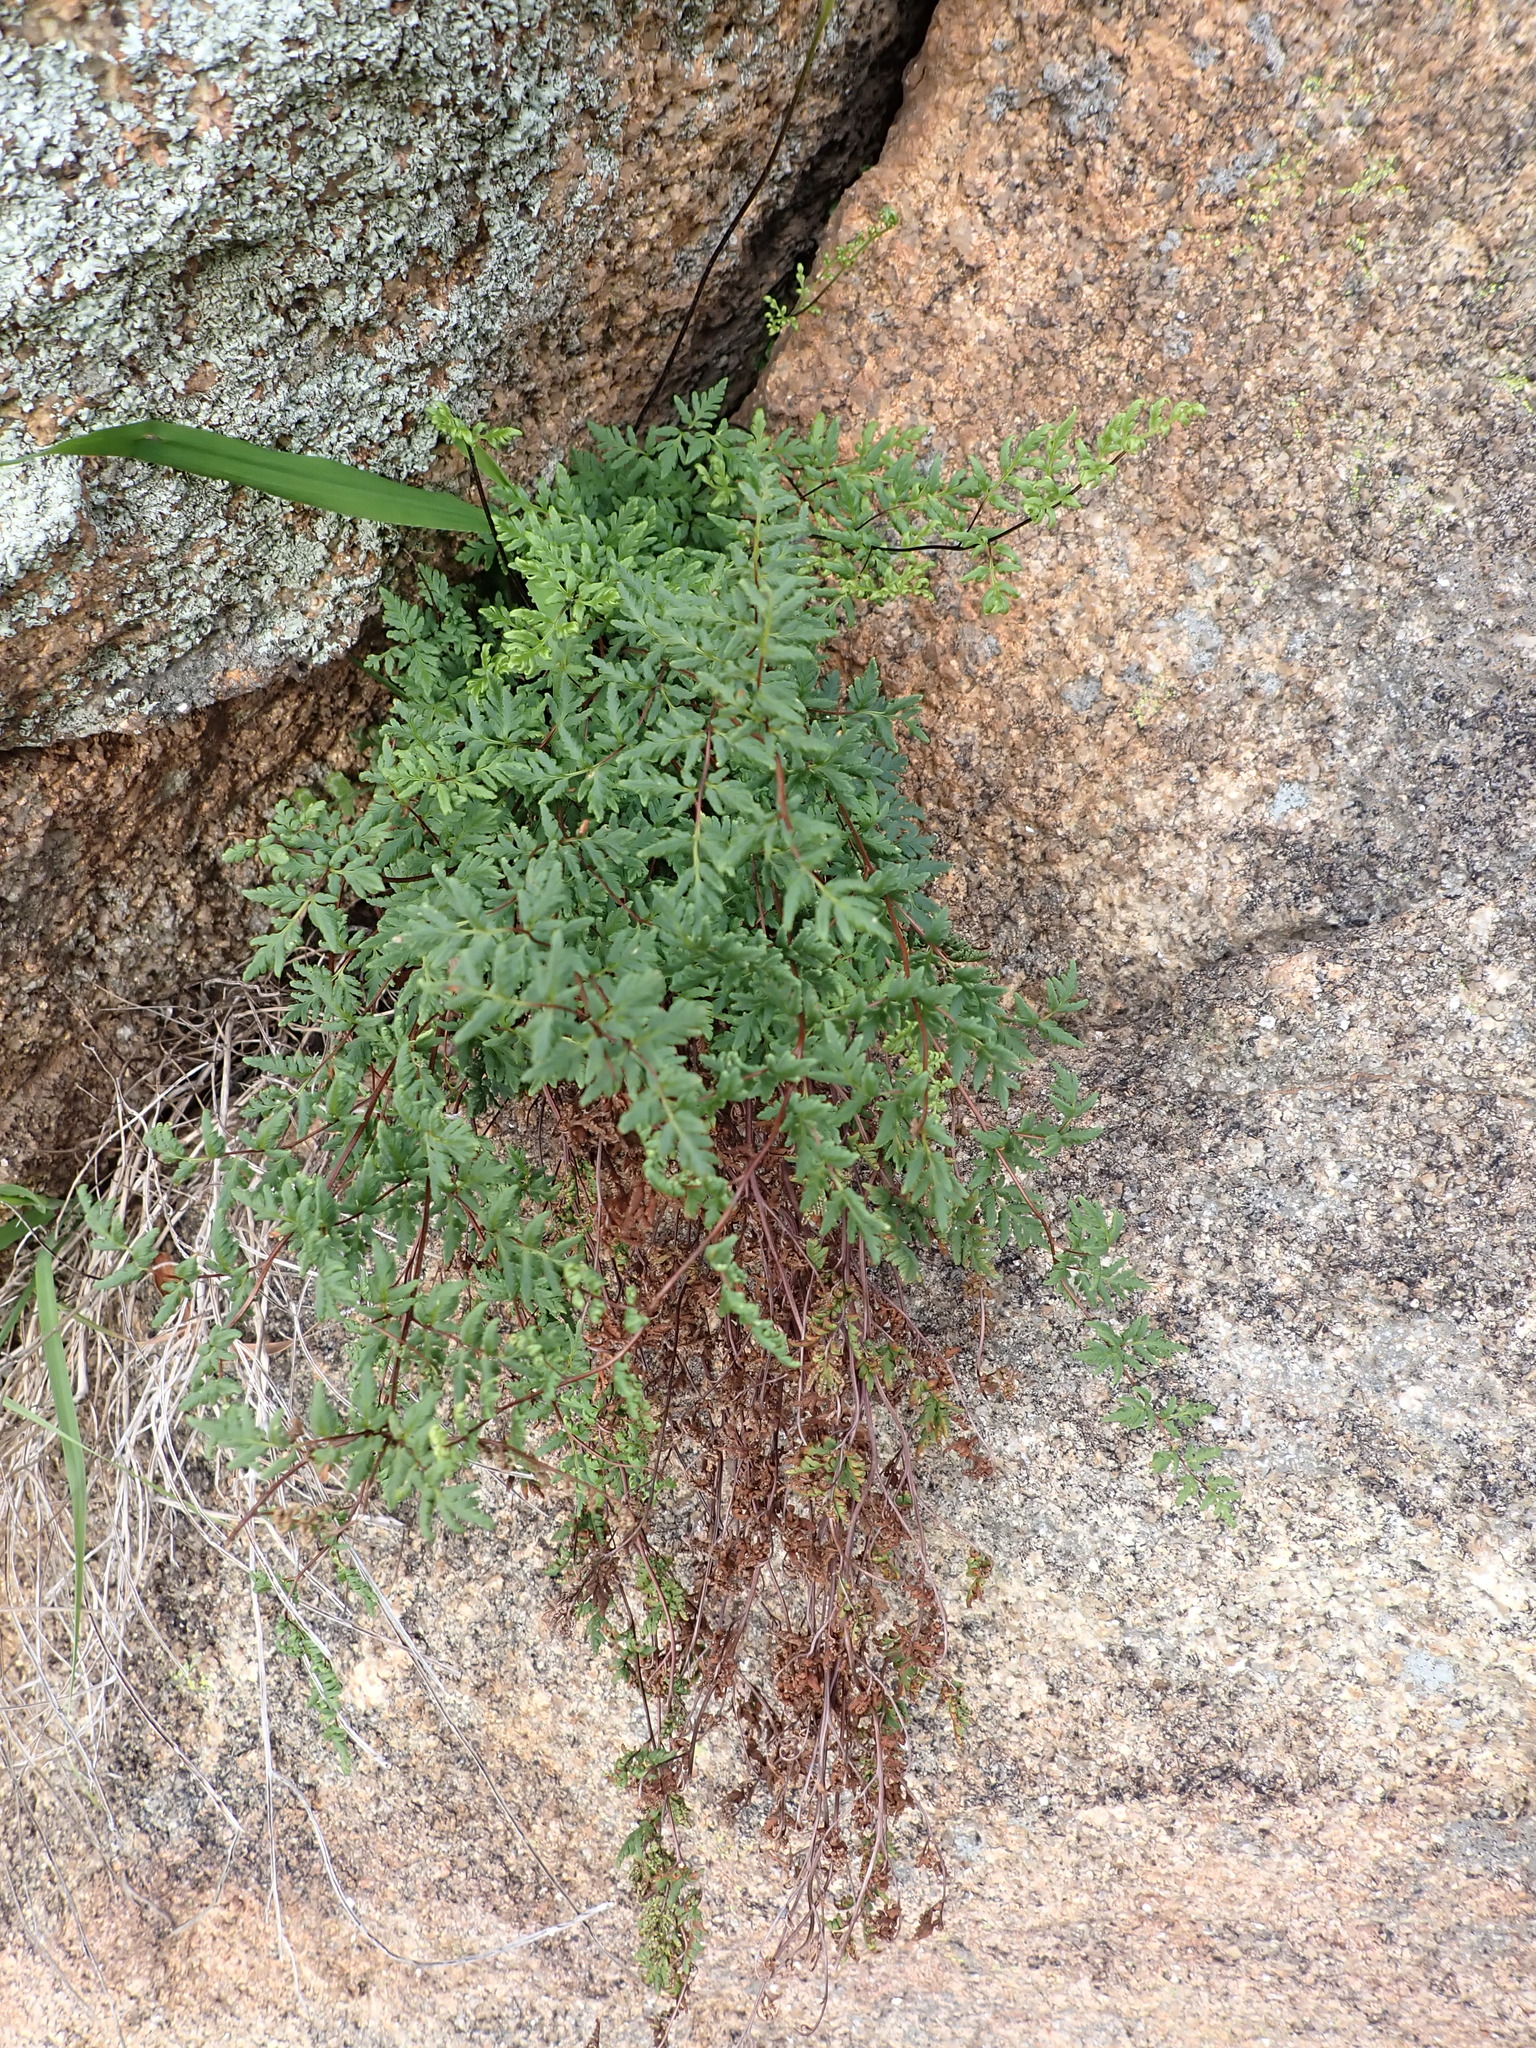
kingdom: Plantae
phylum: Tracheophyta
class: Polypodiopsida
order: Polypodiales
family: Pteridaceae
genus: Cheilanthes
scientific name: Cheilanthes austrotenuifolia
